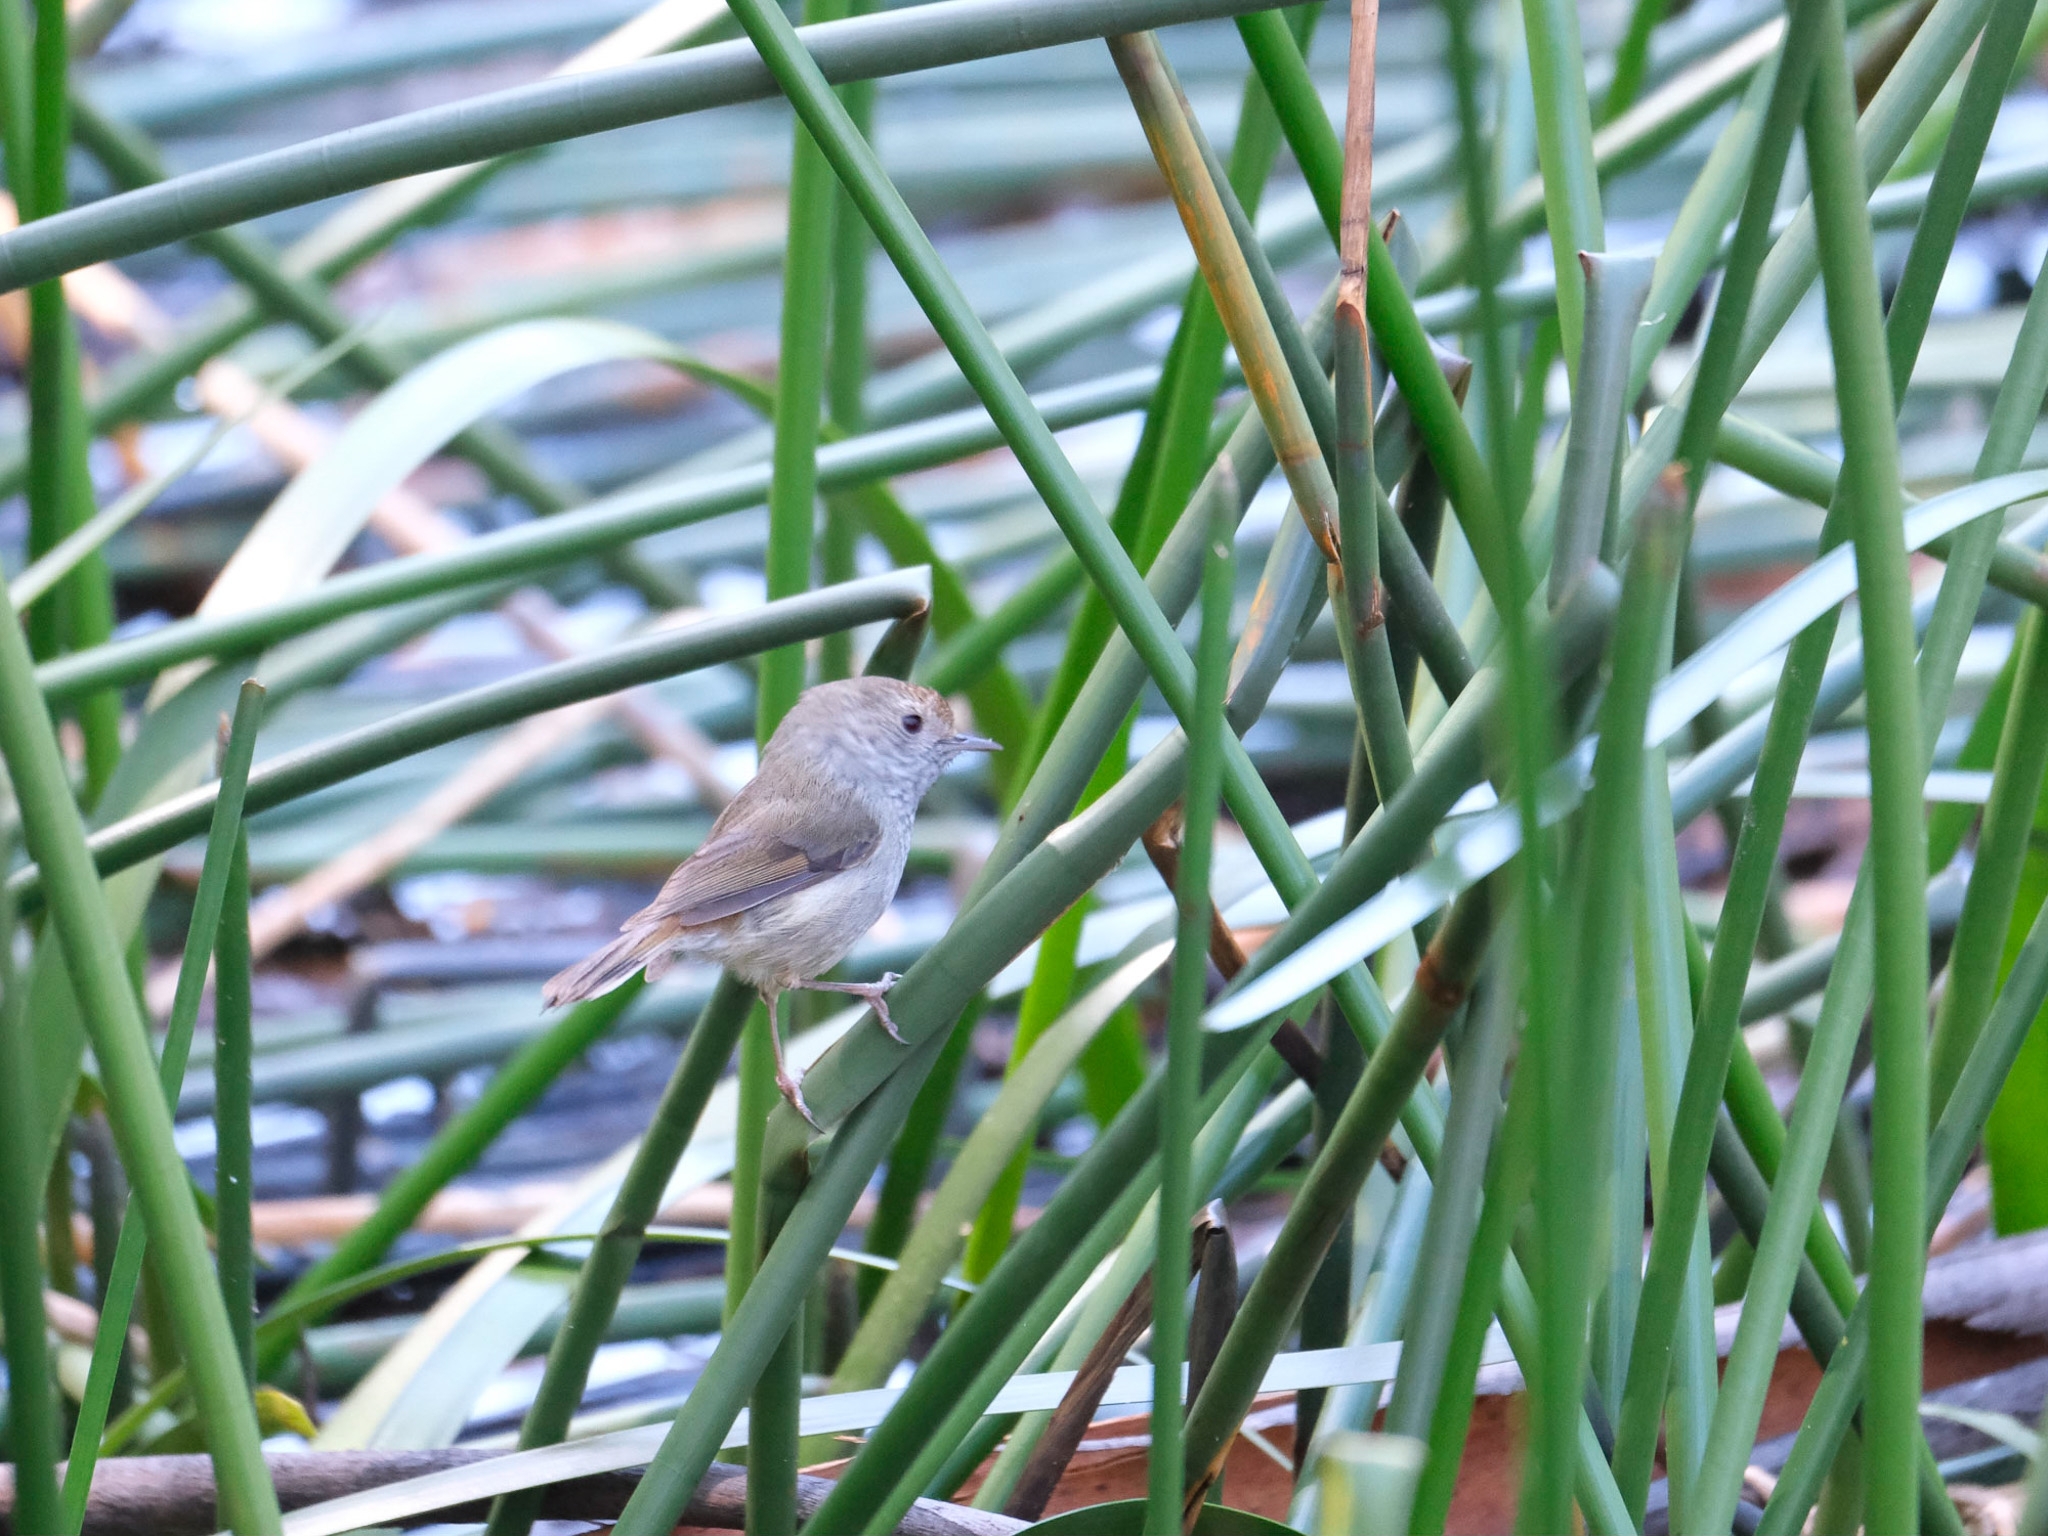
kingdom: Animalia
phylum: Chordata
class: Aves
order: Passeriformes
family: Acanthizidae
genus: Acanthiza
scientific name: Acanthiza ewingii
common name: Tasmanian thornbill
